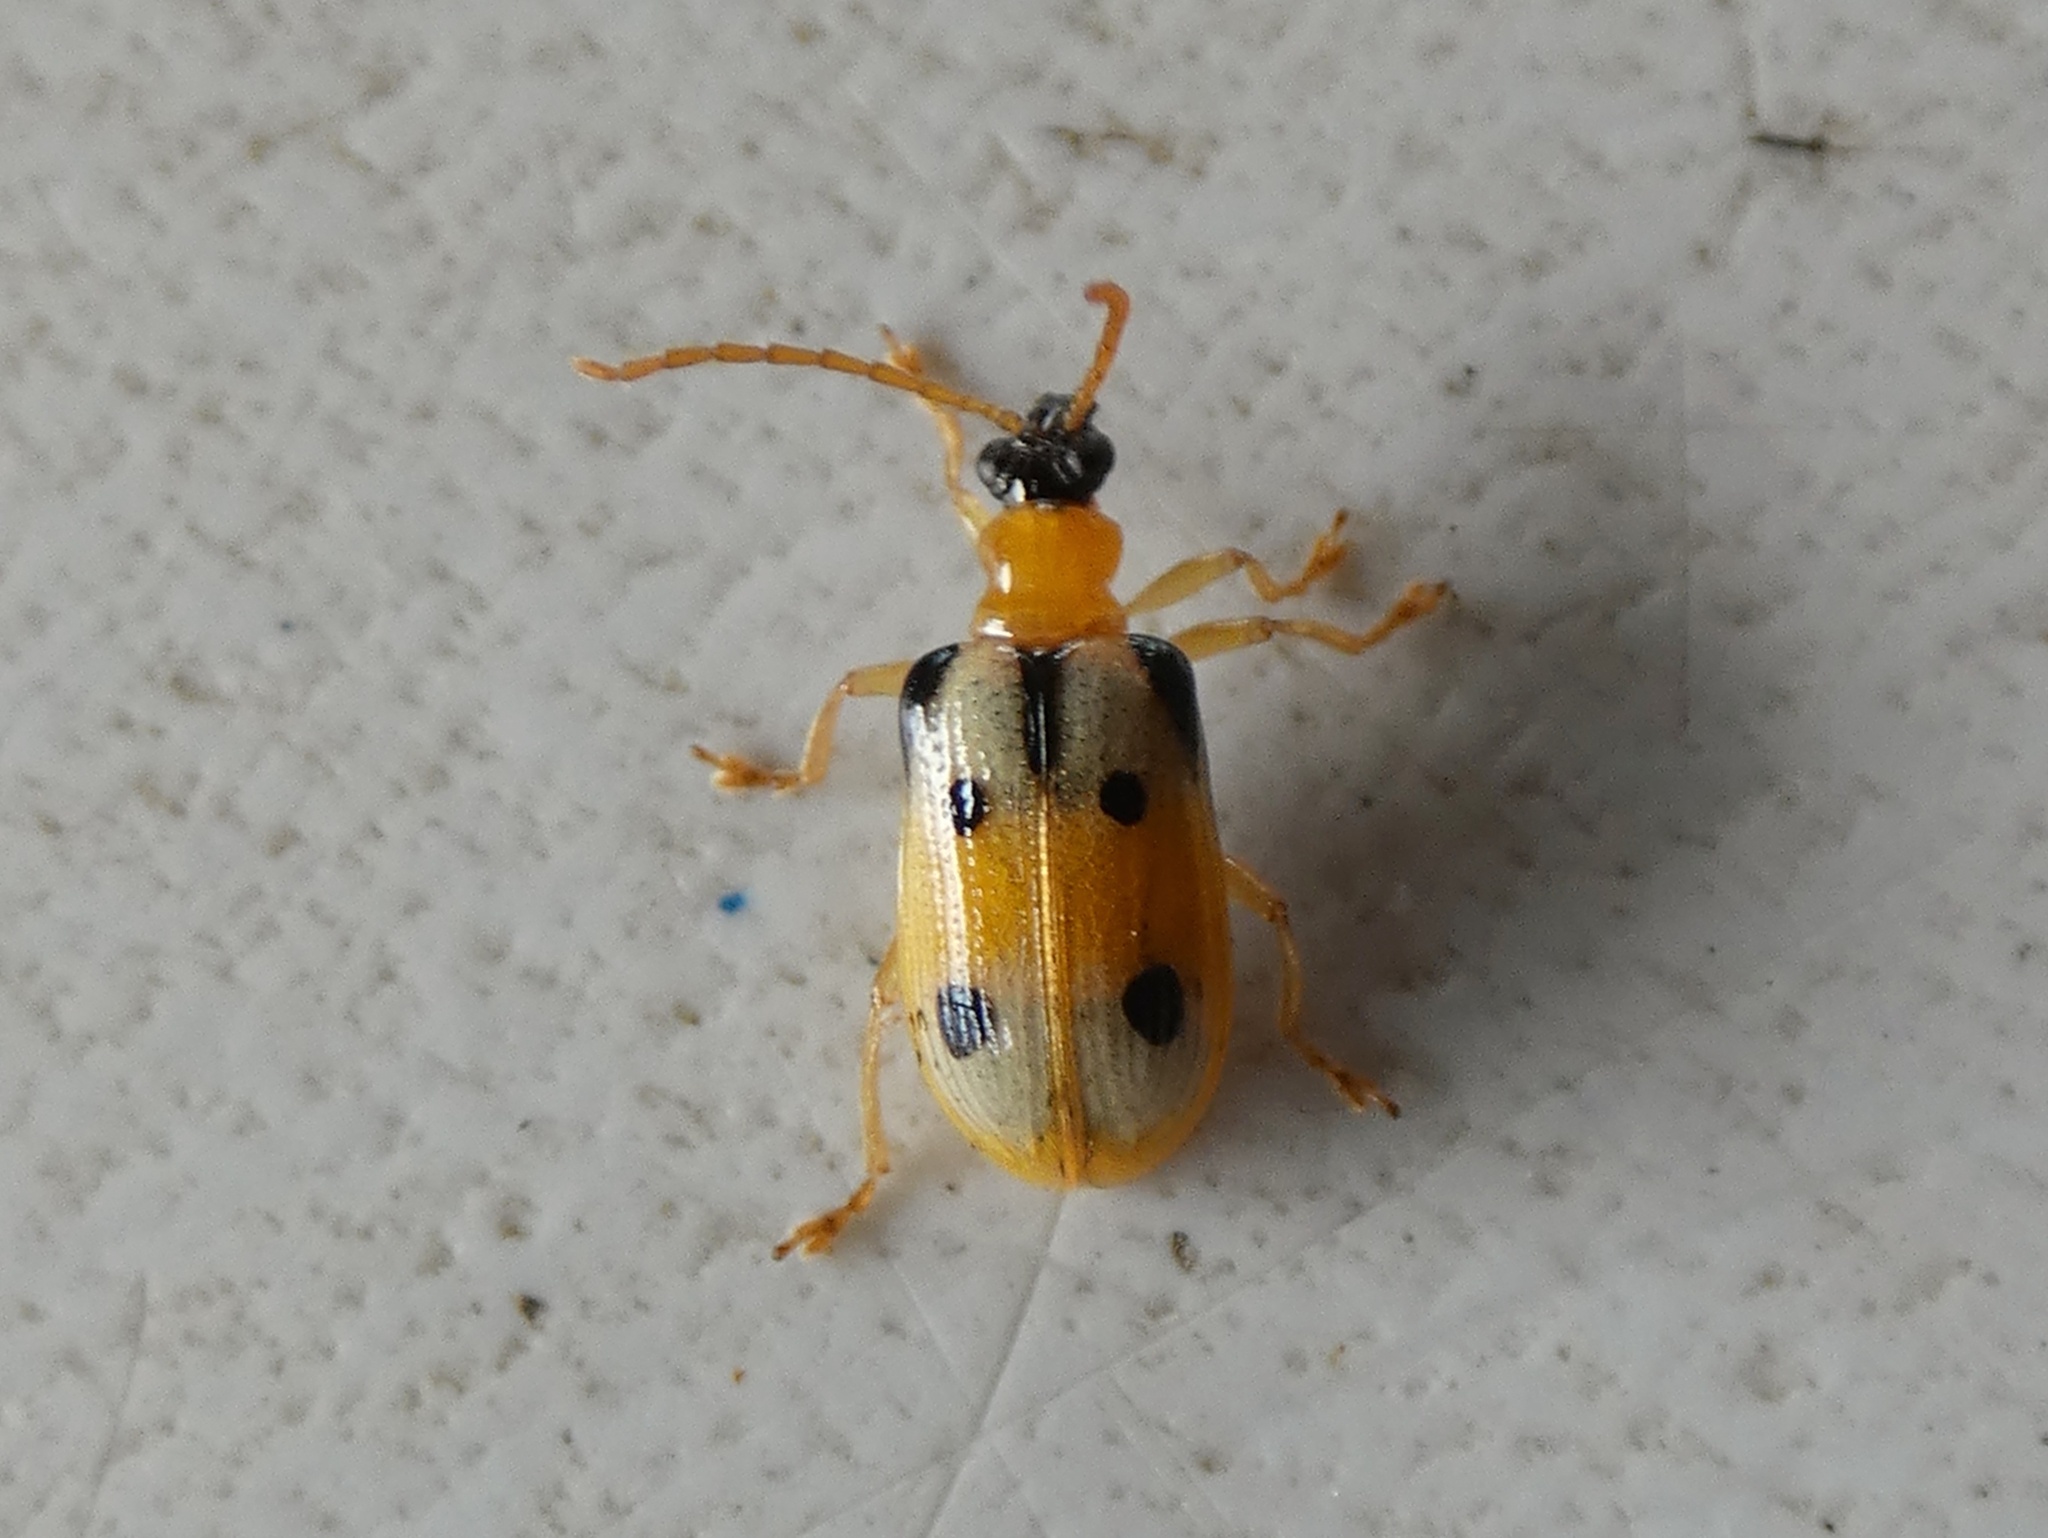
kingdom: Animalia
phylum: Arthropoda
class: Insecta
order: Coleoptera
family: Chrysomelidae
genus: Lema
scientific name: Lema
